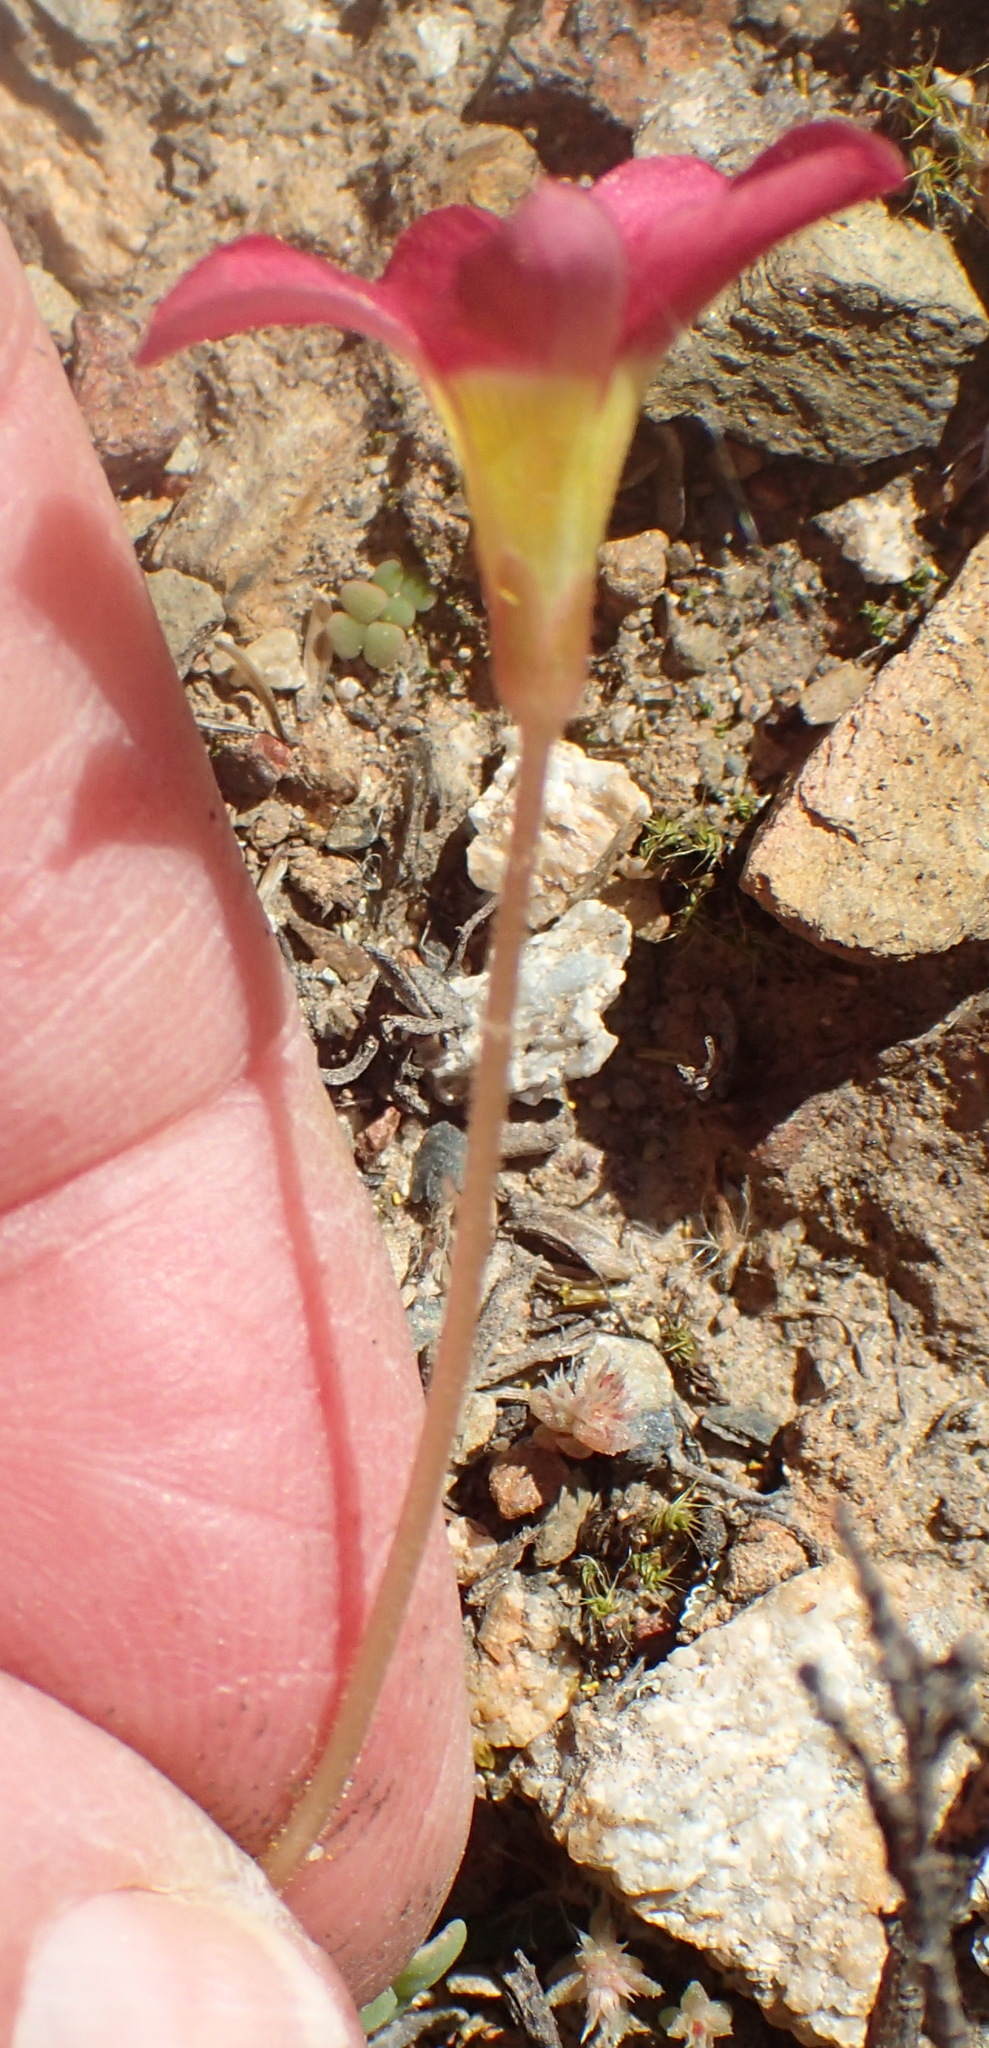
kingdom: Plantae
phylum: Tracheophyta
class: Magnoliopsida
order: Oxalidales
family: Oxalidaceae
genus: Oxalis
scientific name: Oxalis inaequalis
